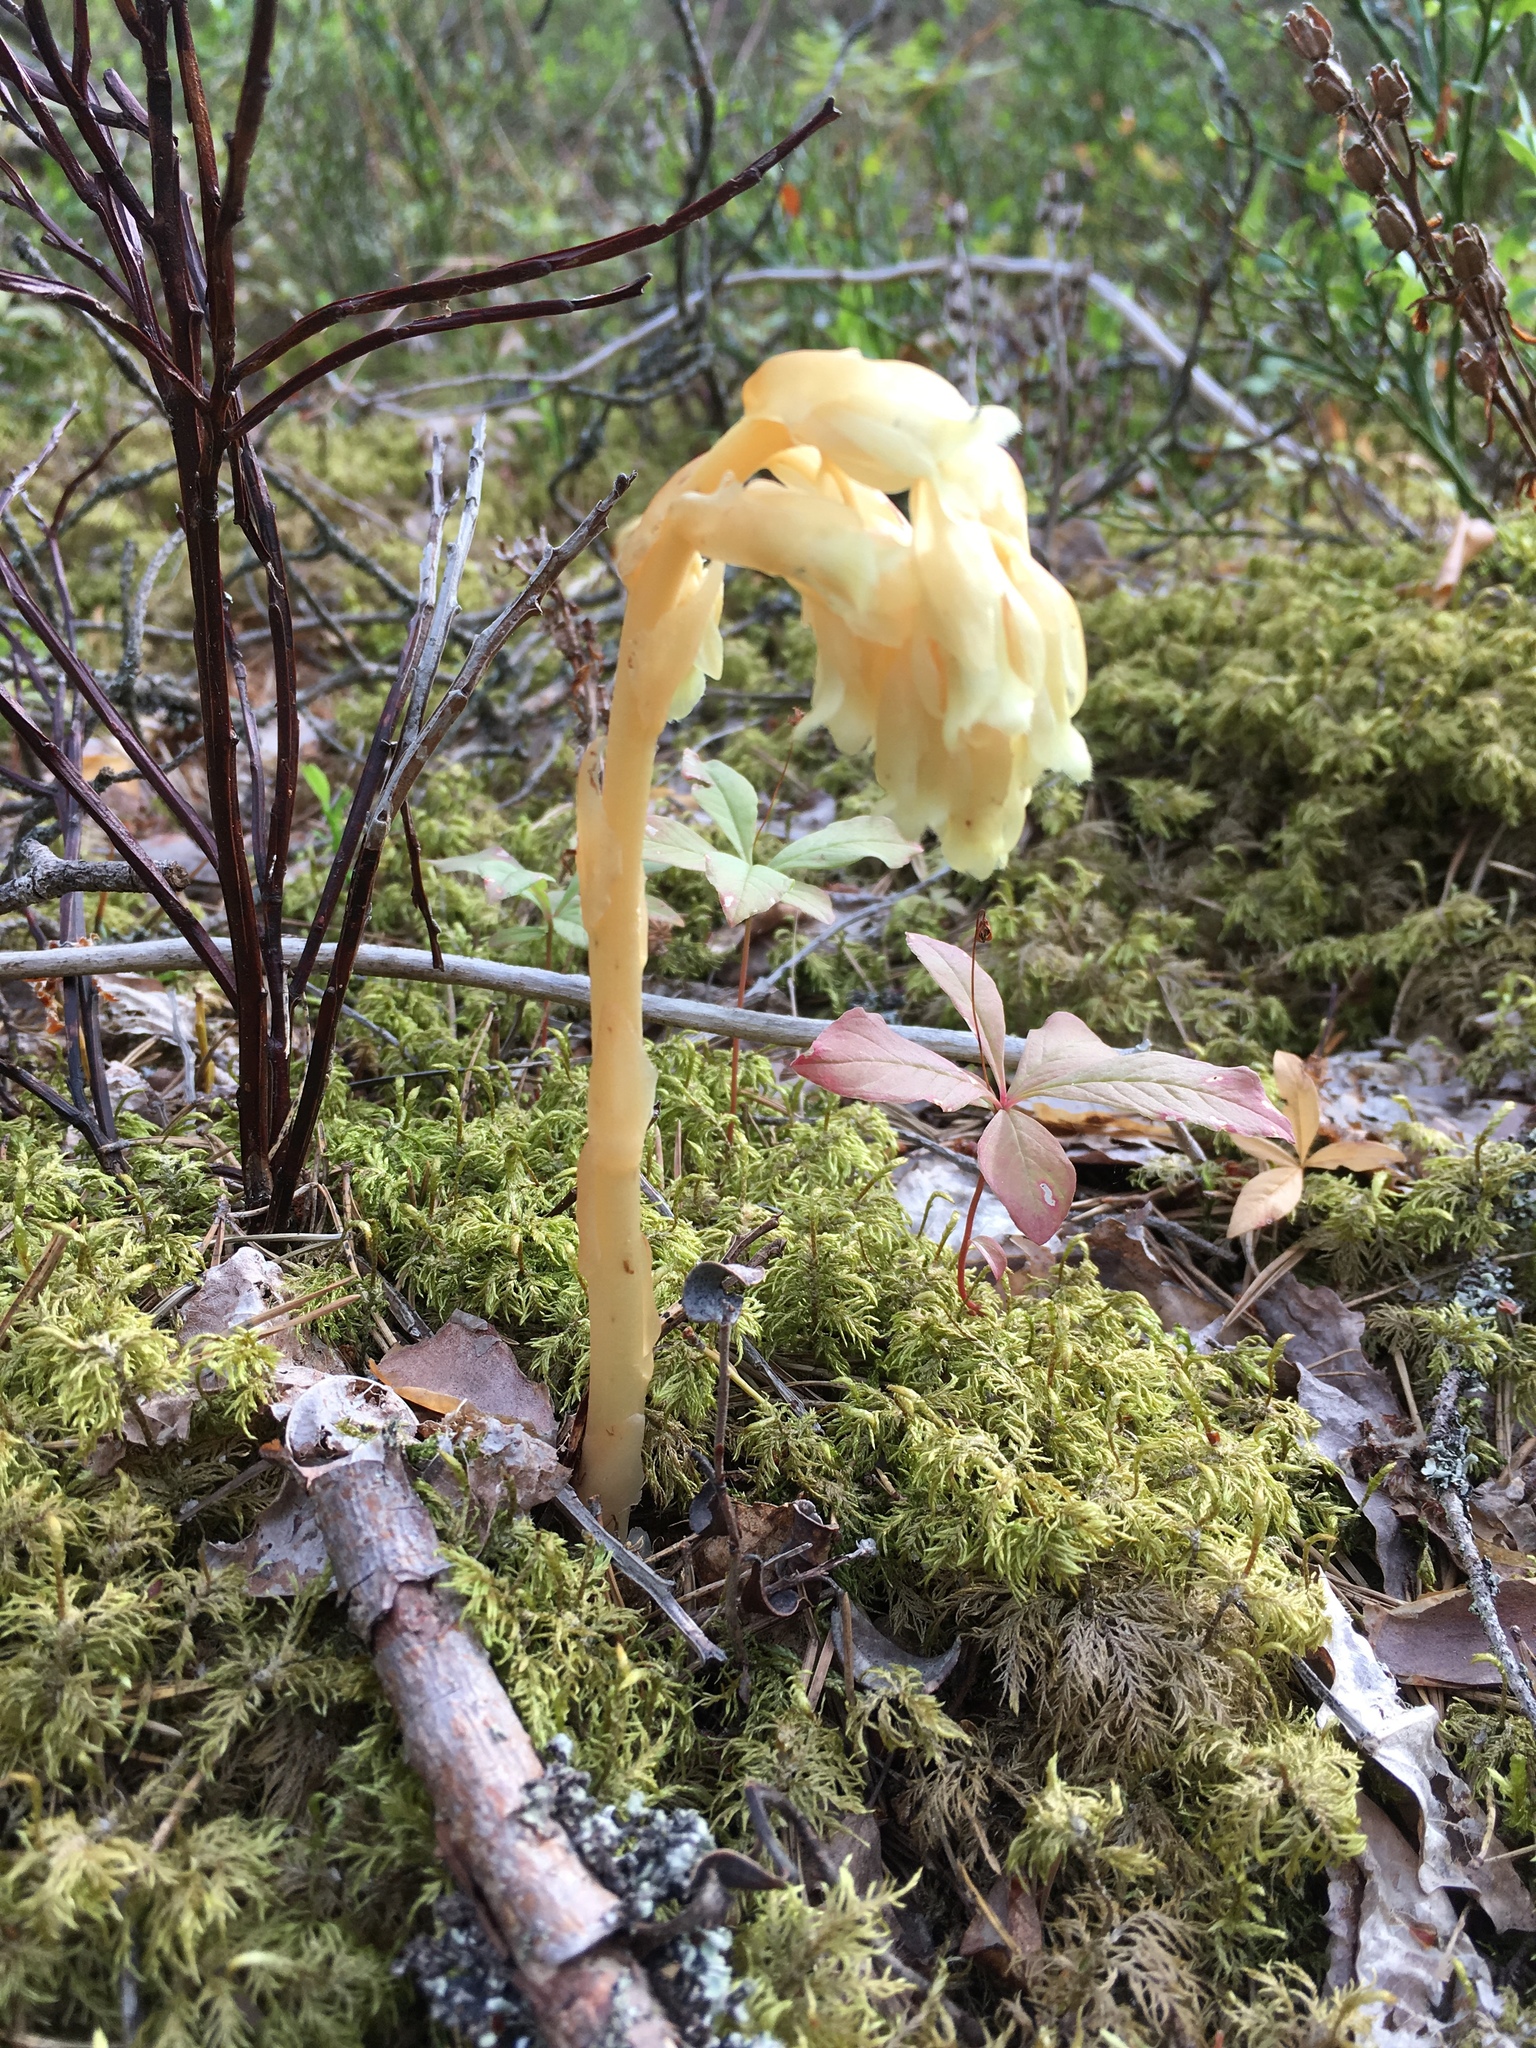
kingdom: Plantae
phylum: Tracheophyta
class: Magnoliopsida
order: Ericales
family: Ericaceae
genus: Hypopitys
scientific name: Hypopitys monotropa
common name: Yellow bird's-nest
